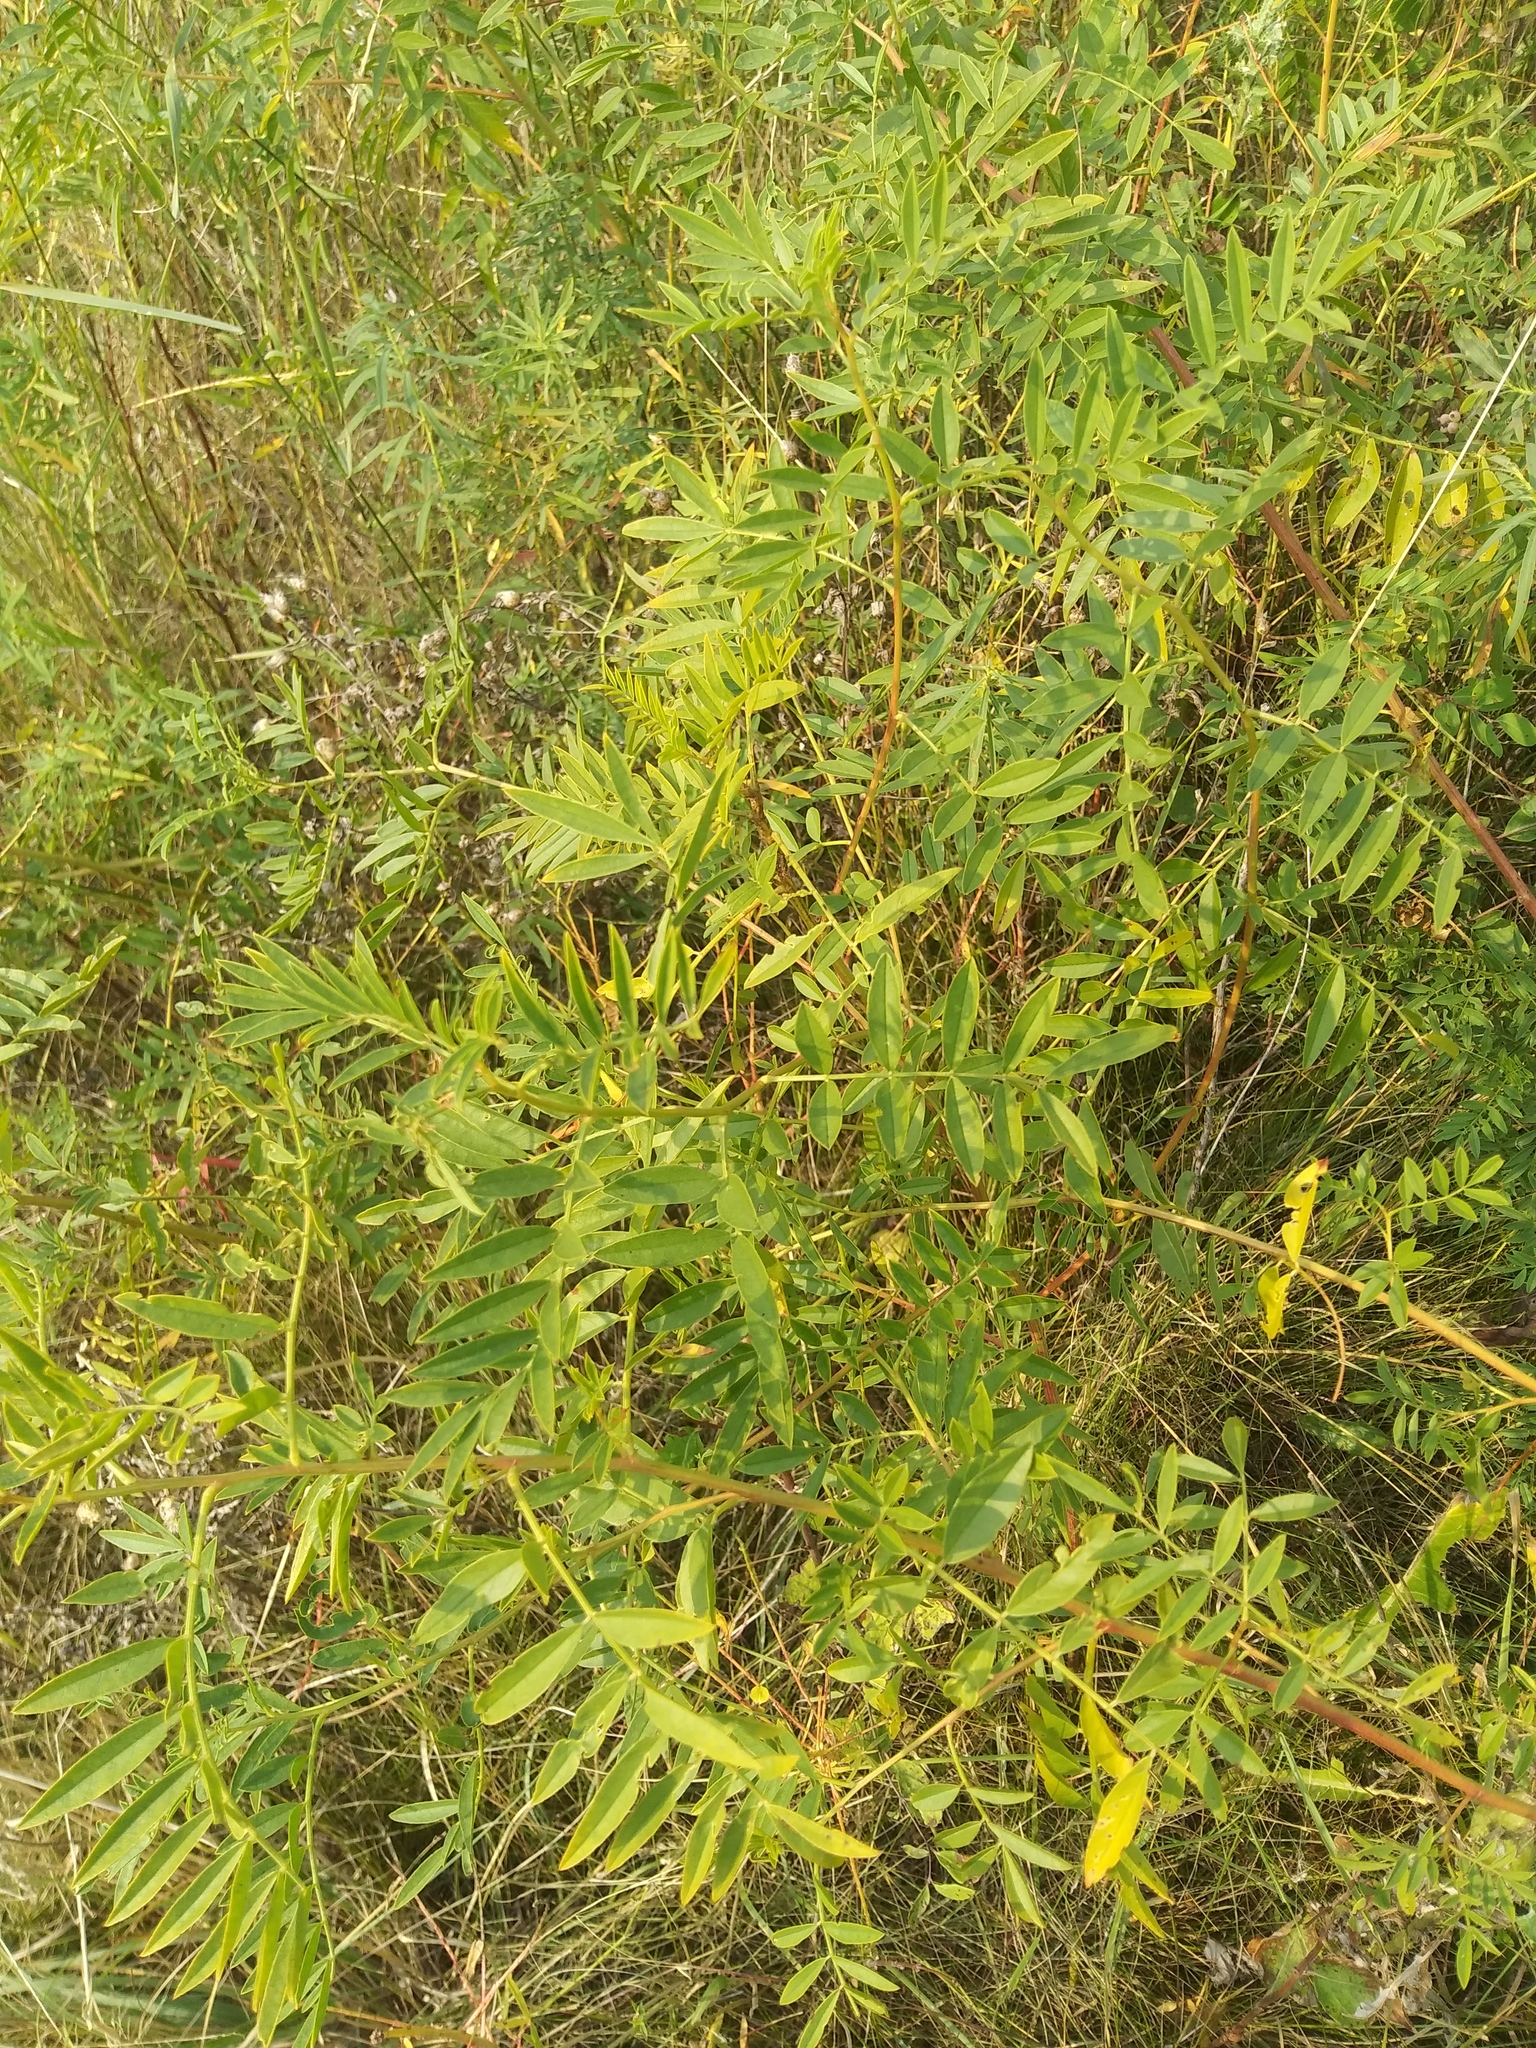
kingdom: Plantae
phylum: Tracheophyta
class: Magnoliopsida
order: Fabales
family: Fabaceae
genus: Glycyrrhiza
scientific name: Glycyrrhiza lepidota
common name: American liquorice
